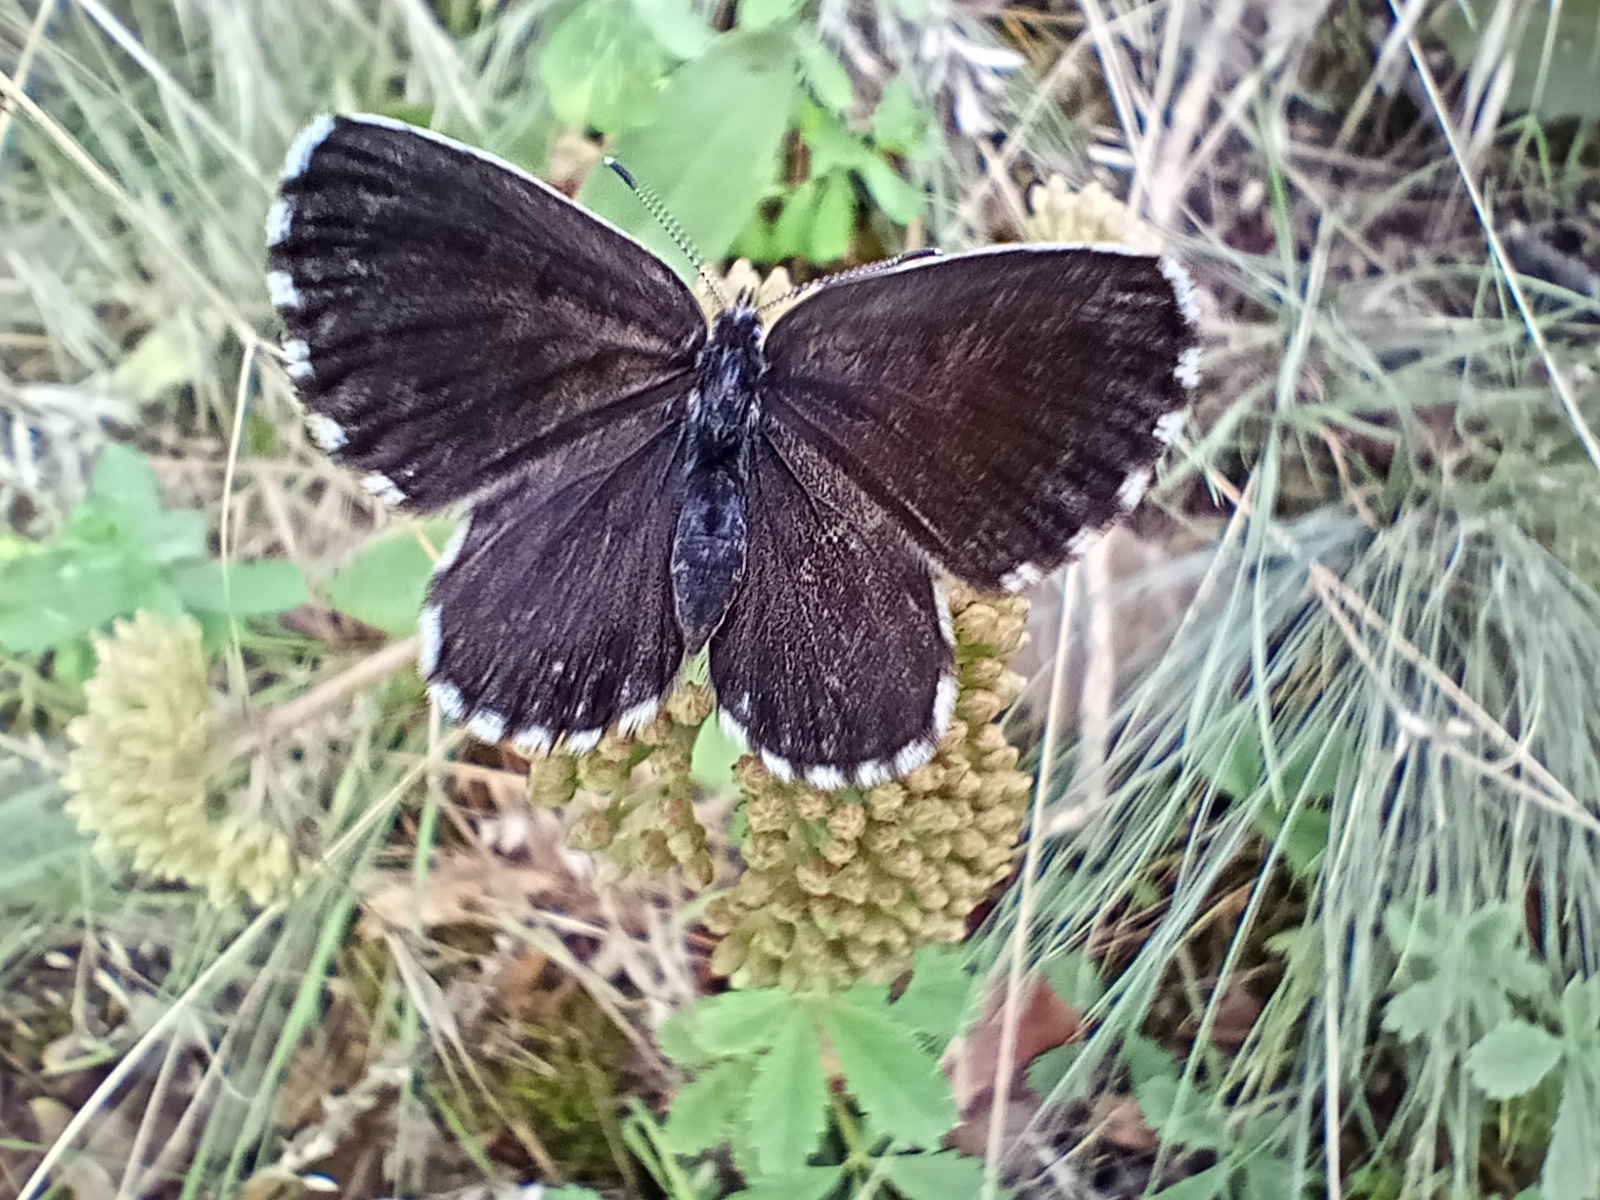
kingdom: Animalia
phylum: Arthropoda
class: Insecta
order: Lepidoptera
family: Lycaenidae
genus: Scolitantides
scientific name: Scolitantides orion
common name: Chequered blue
